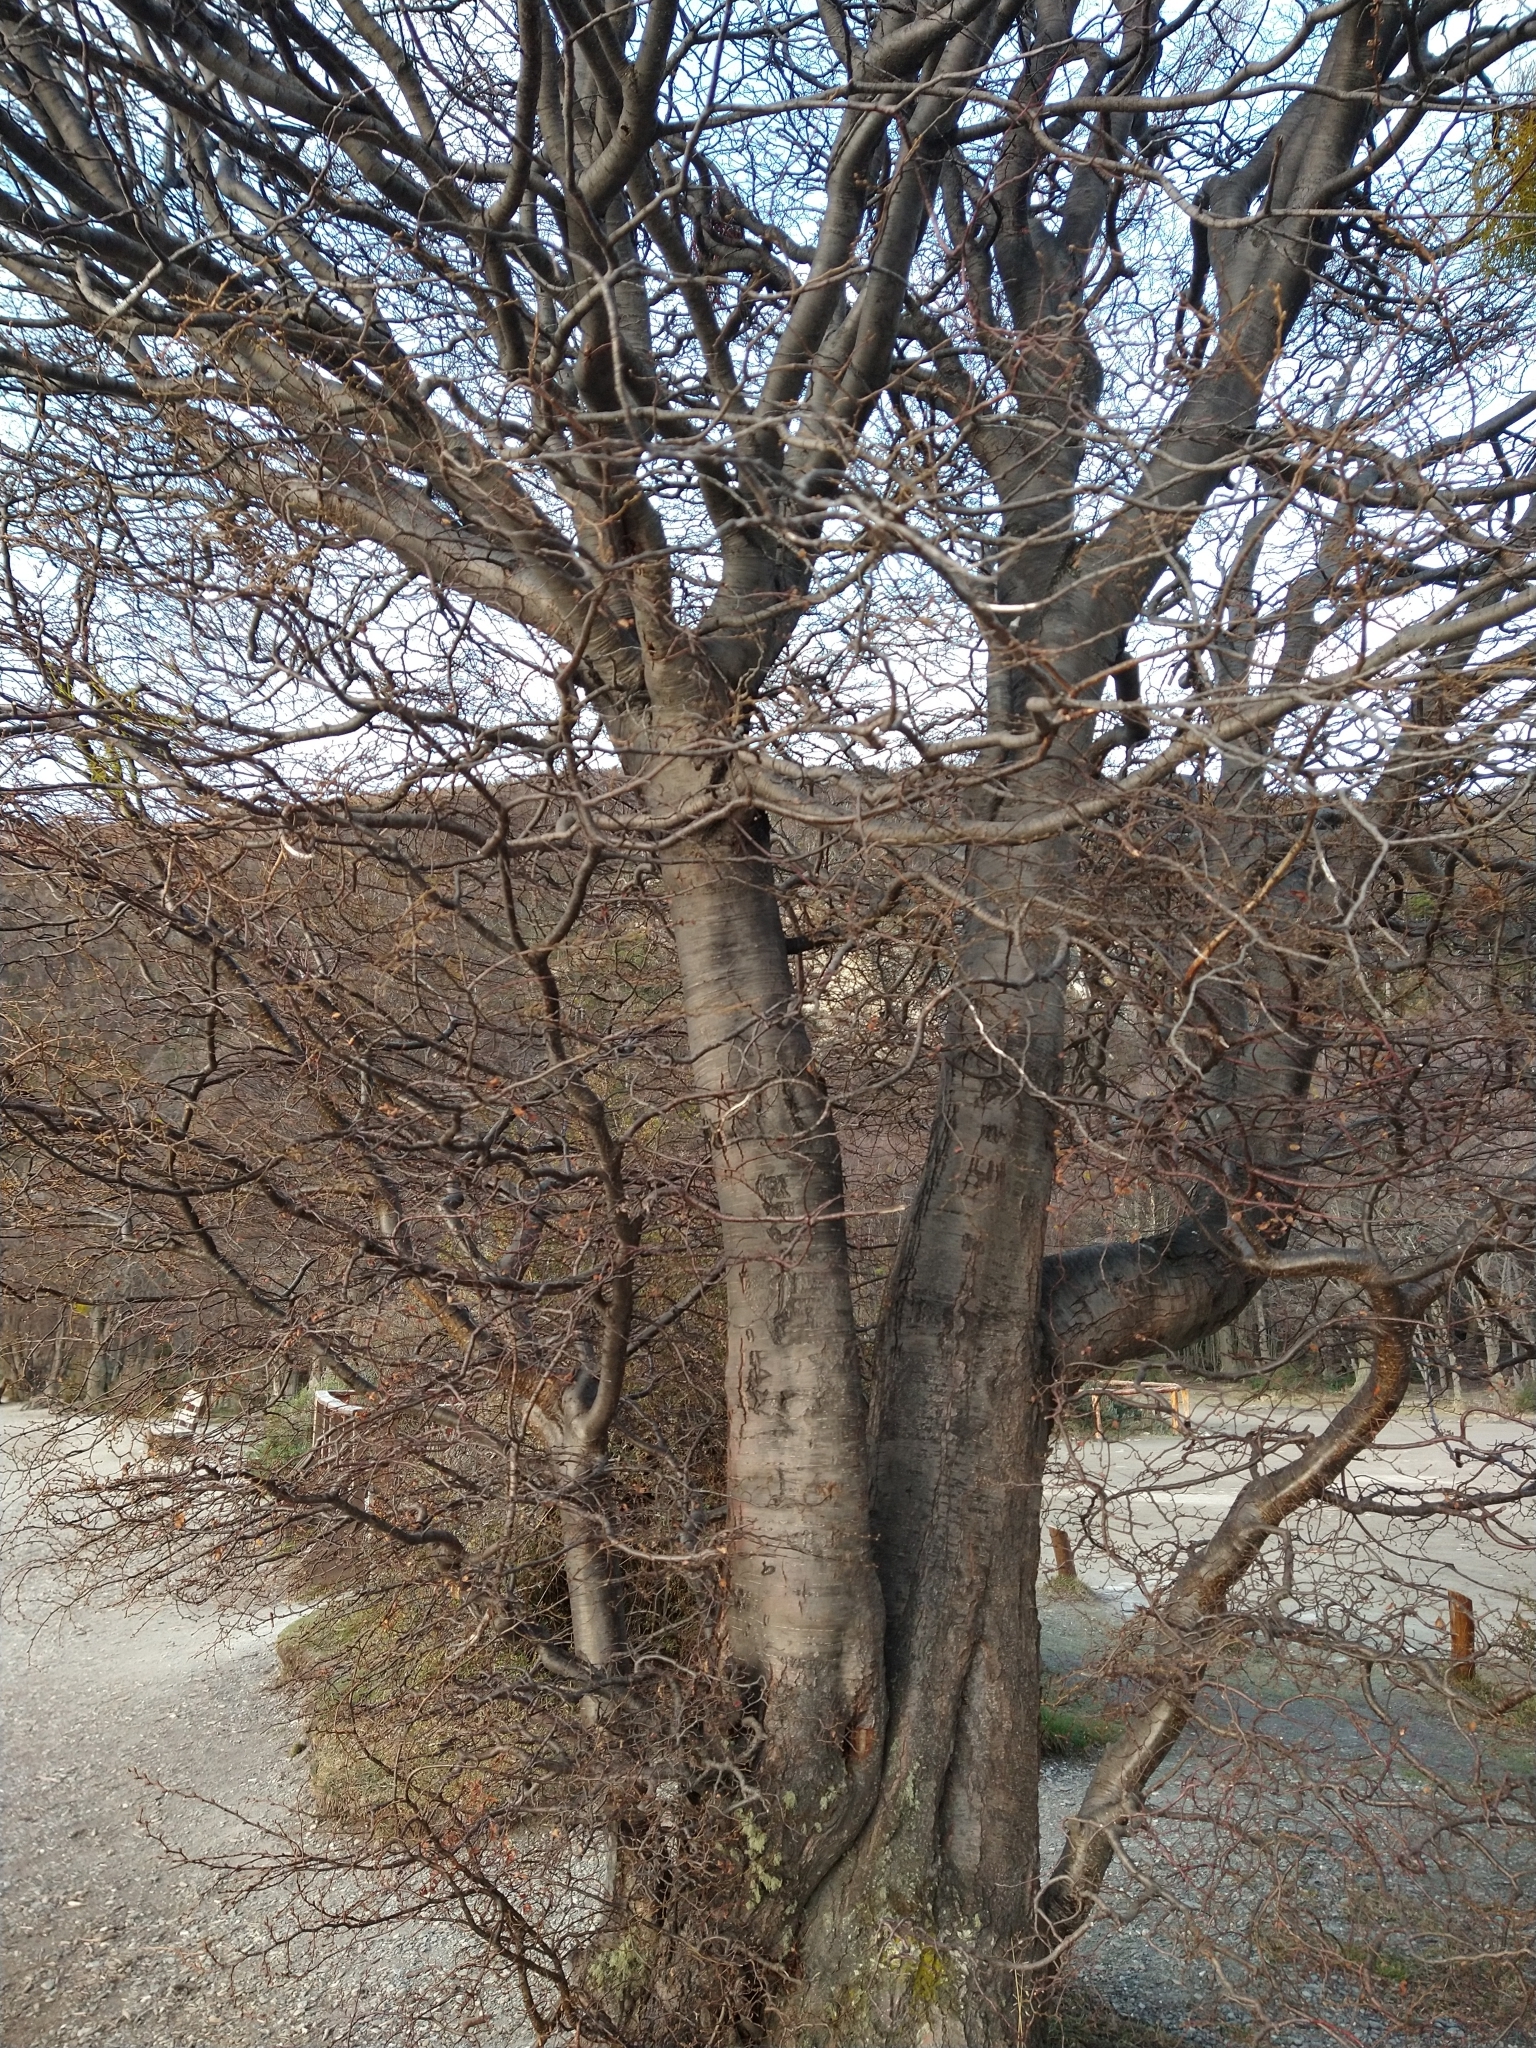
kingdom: Plantae
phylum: Tracheophyta
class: Magnoliopsida
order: Fagales
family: Nothofagaceae
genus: Nothofagus
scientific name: Nothofagus pumilio
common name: Lenga beech
